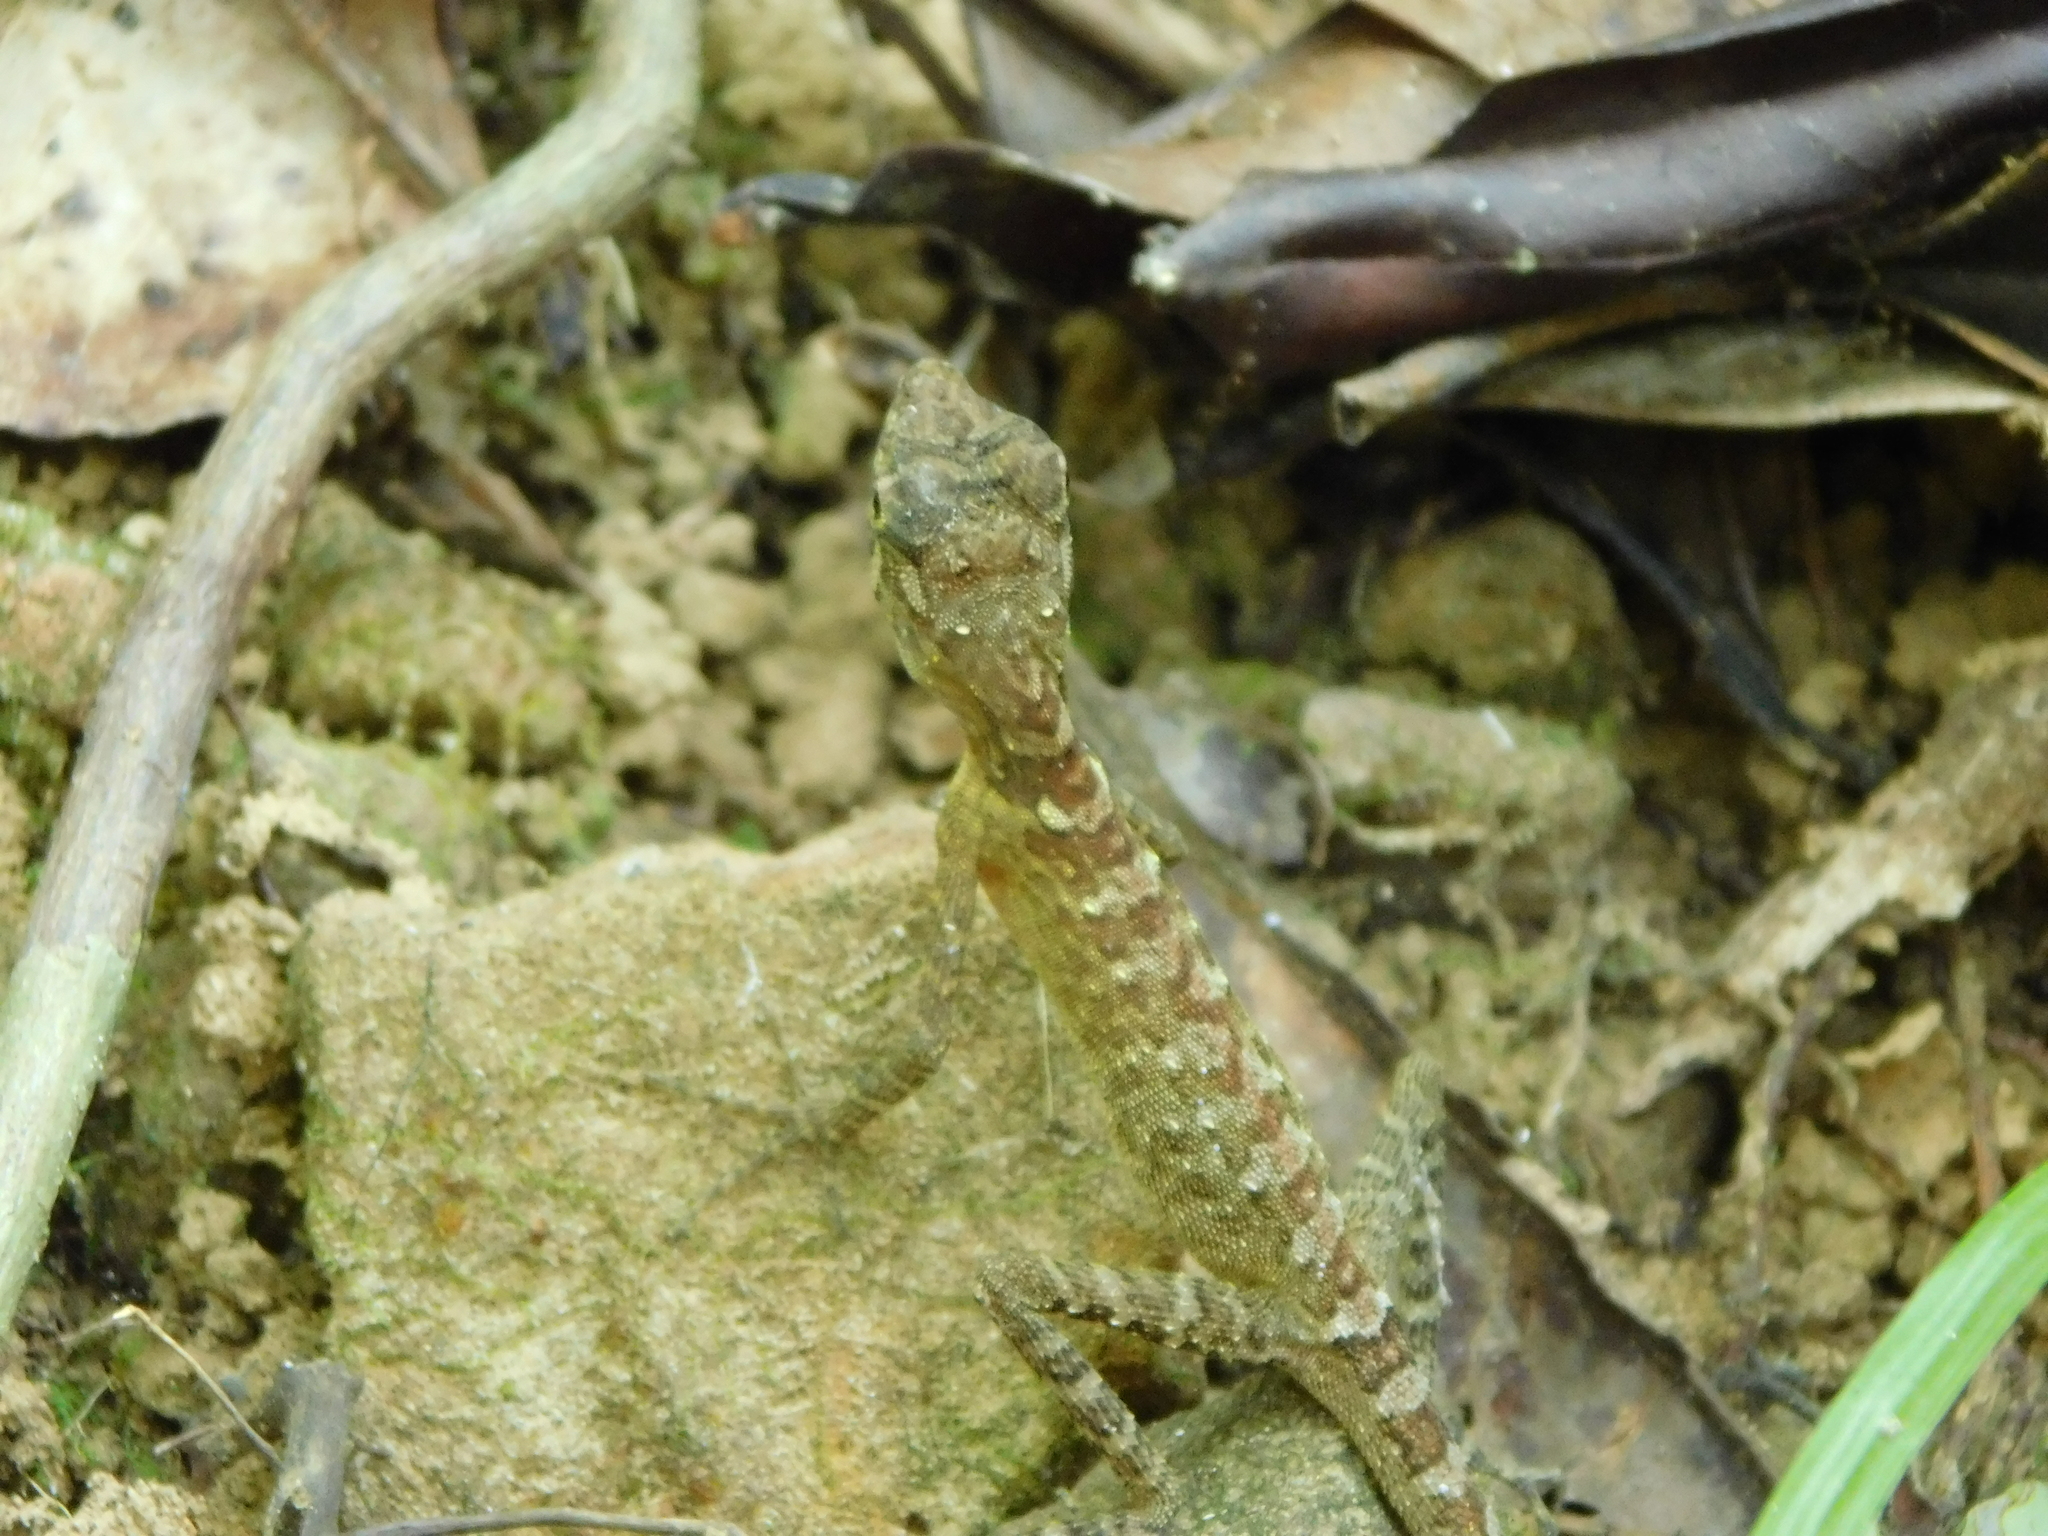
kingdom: Animalia
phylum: Chordata
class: Squamata
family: Agamidae
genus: Coryphophylax
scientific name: Coryphophylax subcristatus
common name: Short-crested bay island forest lizard
